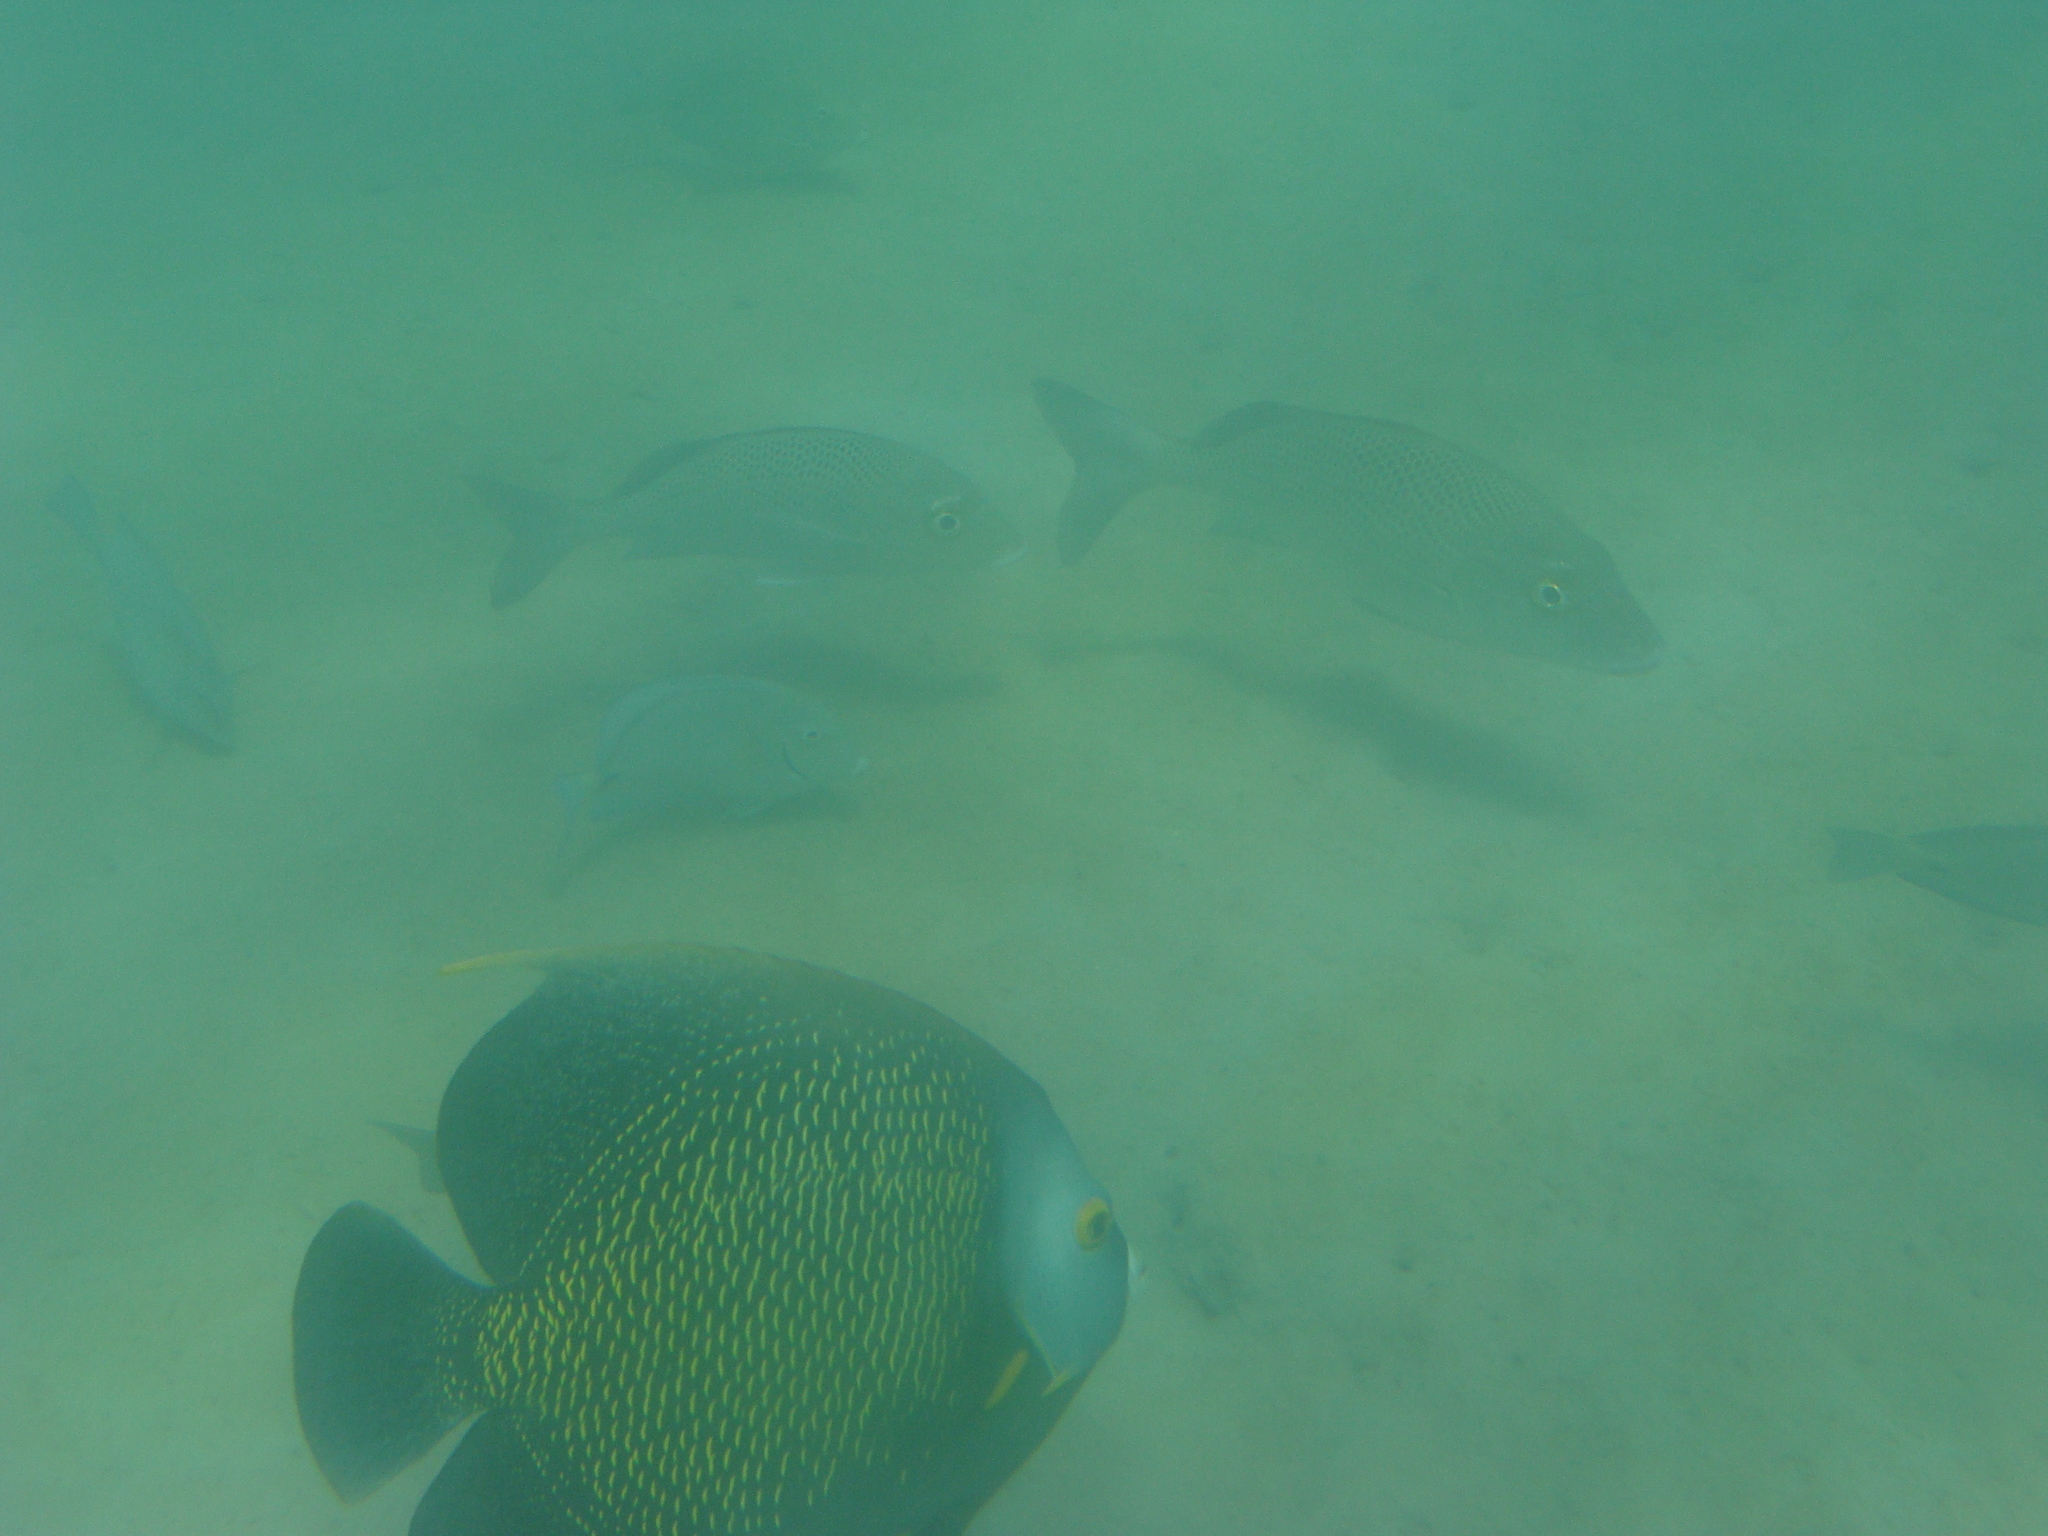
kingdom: Animalia
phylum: Chordata
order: Perciformes
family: Pomacanthidae
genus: Pomacanthus
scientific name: Pomacanthus paru
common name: French angelfish
